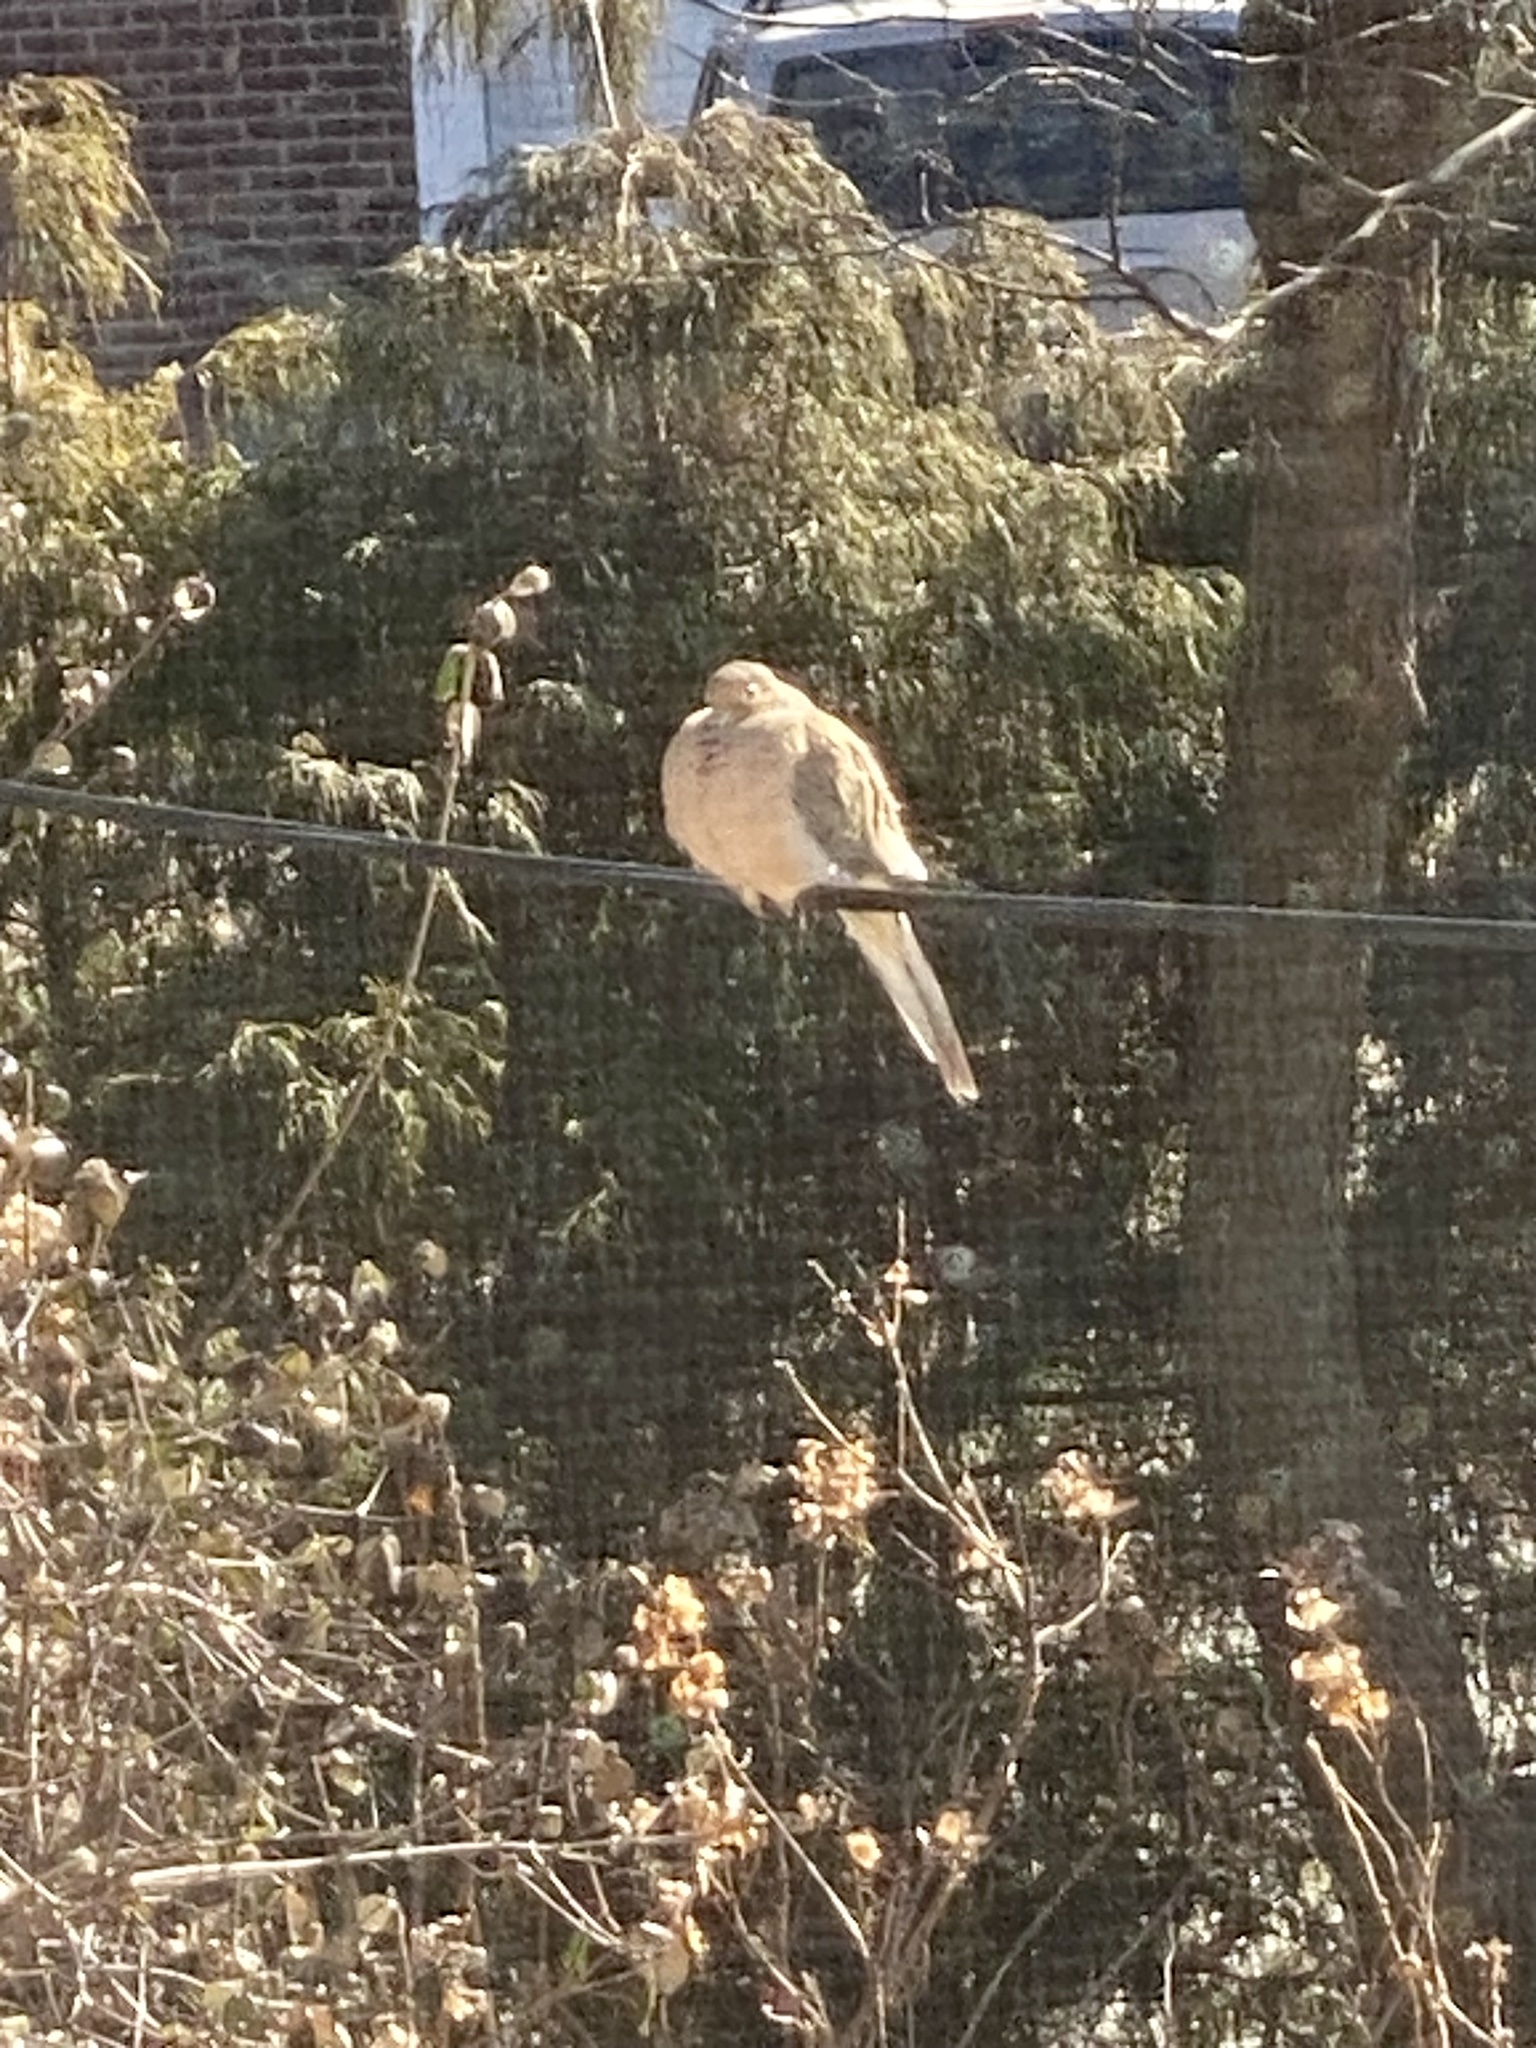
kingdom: Animalia
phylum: Chordata
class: Aves
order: Columbiformes
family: Columbidae
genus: Zenaida
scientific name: Zenaida macroura
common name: Mourning dove
